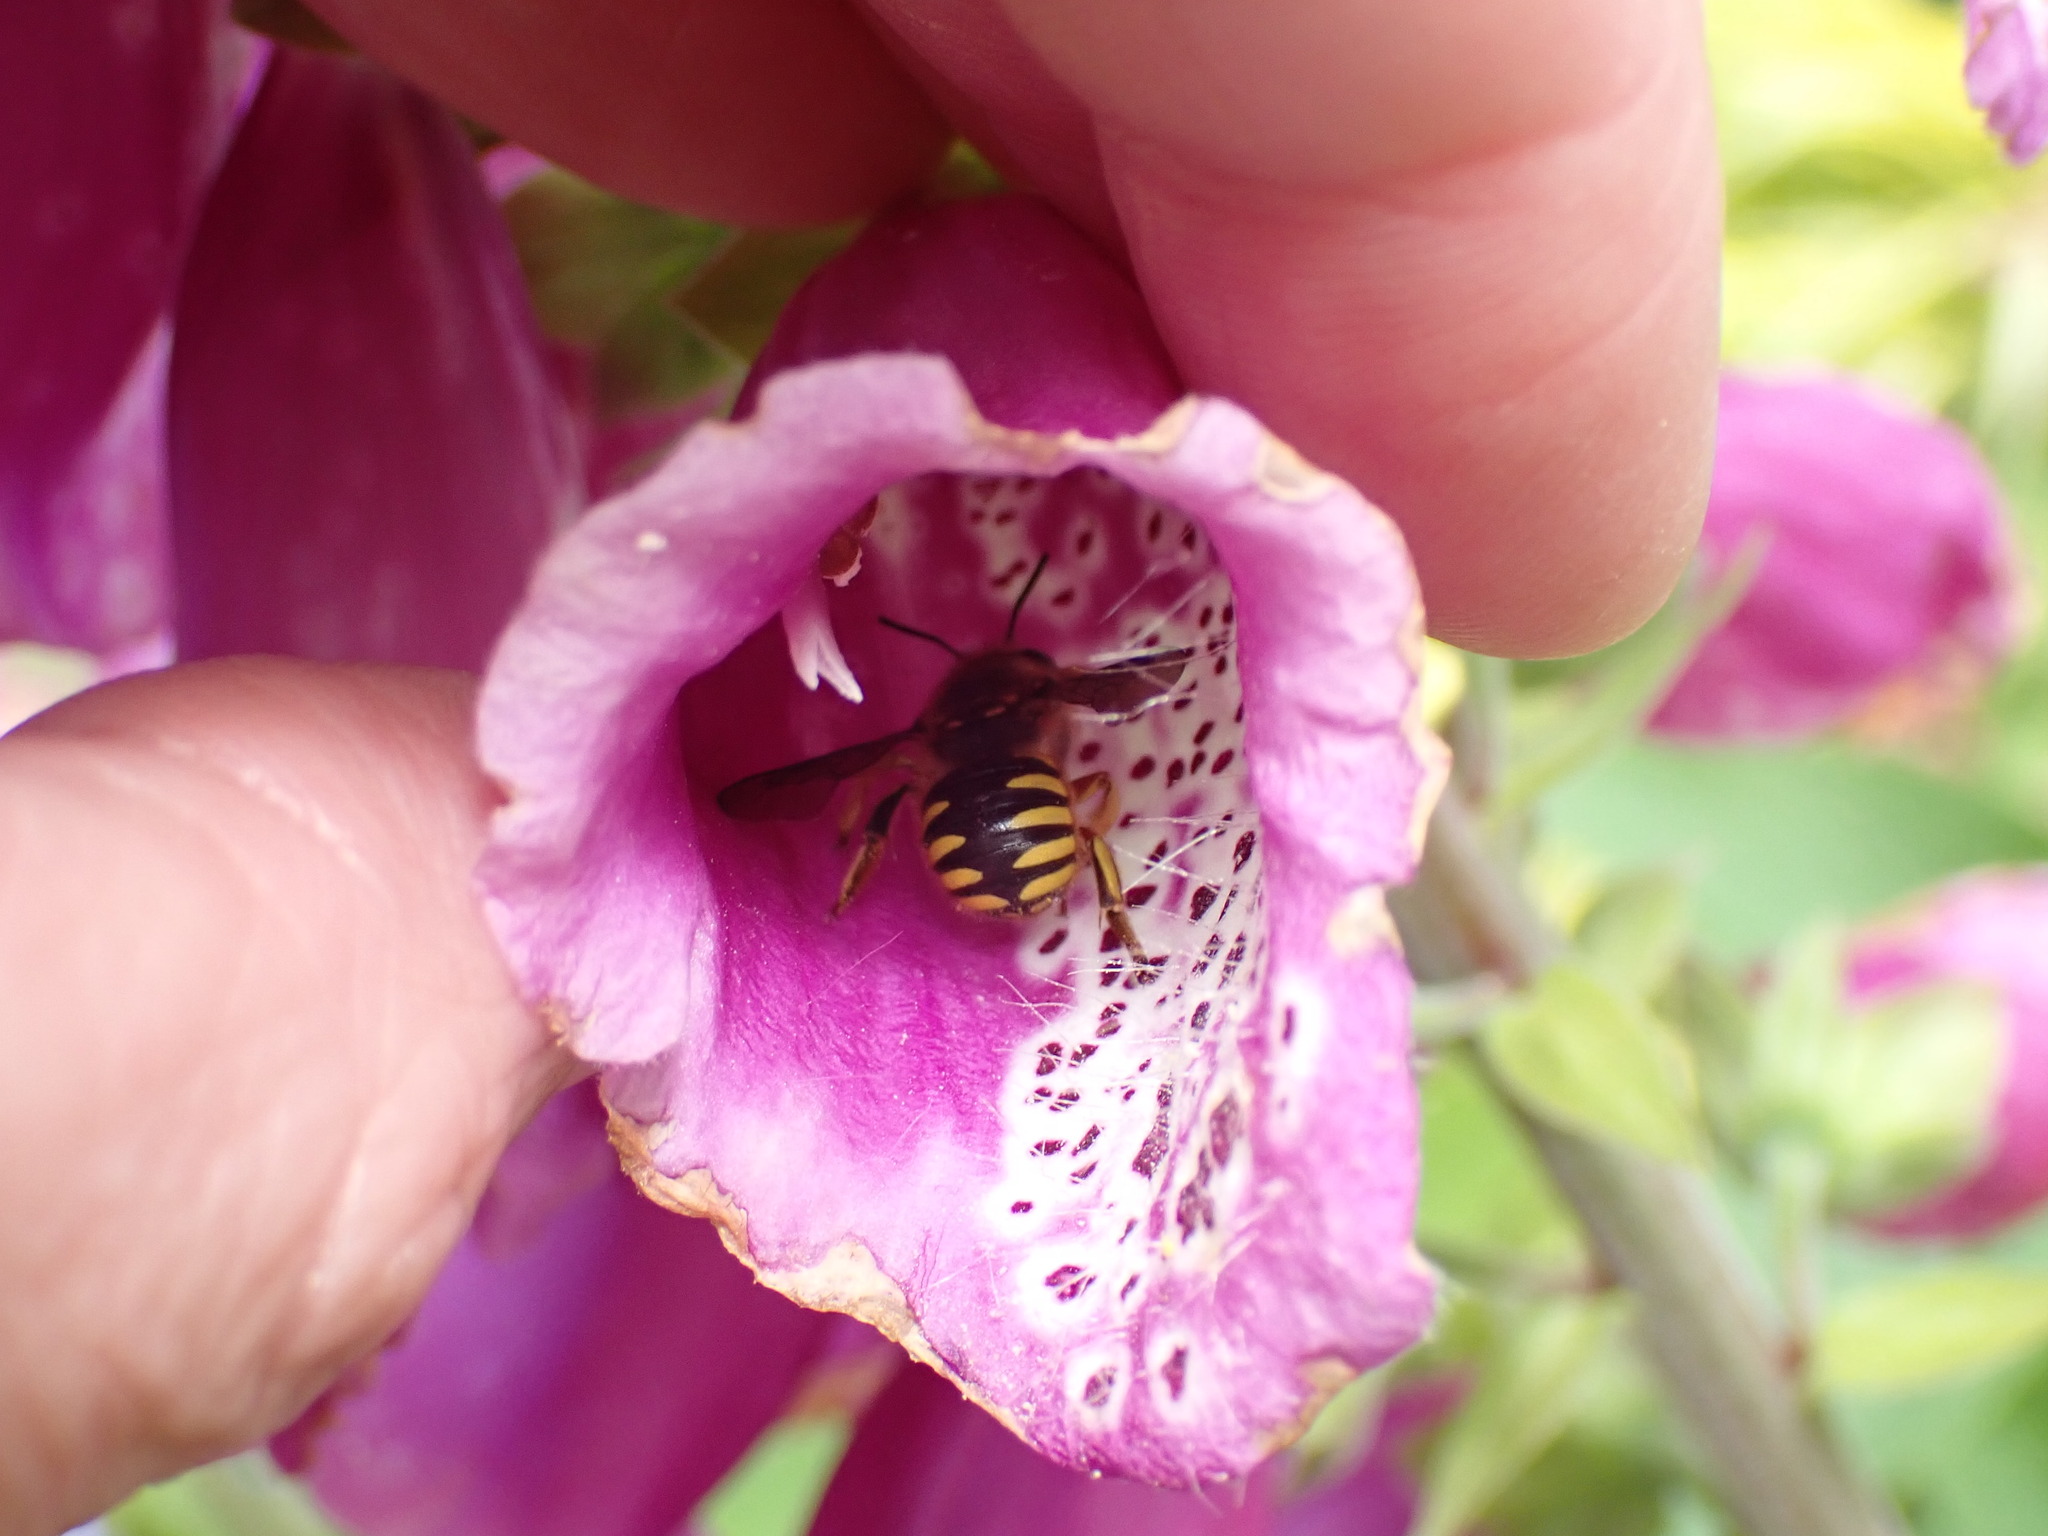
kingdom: Animalia
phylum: Arthropoda
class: Insecta
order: Hymenoptera
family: Megachilidae
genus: Anthidium
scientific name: Anthidium manicatum
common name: Wool carder bee
